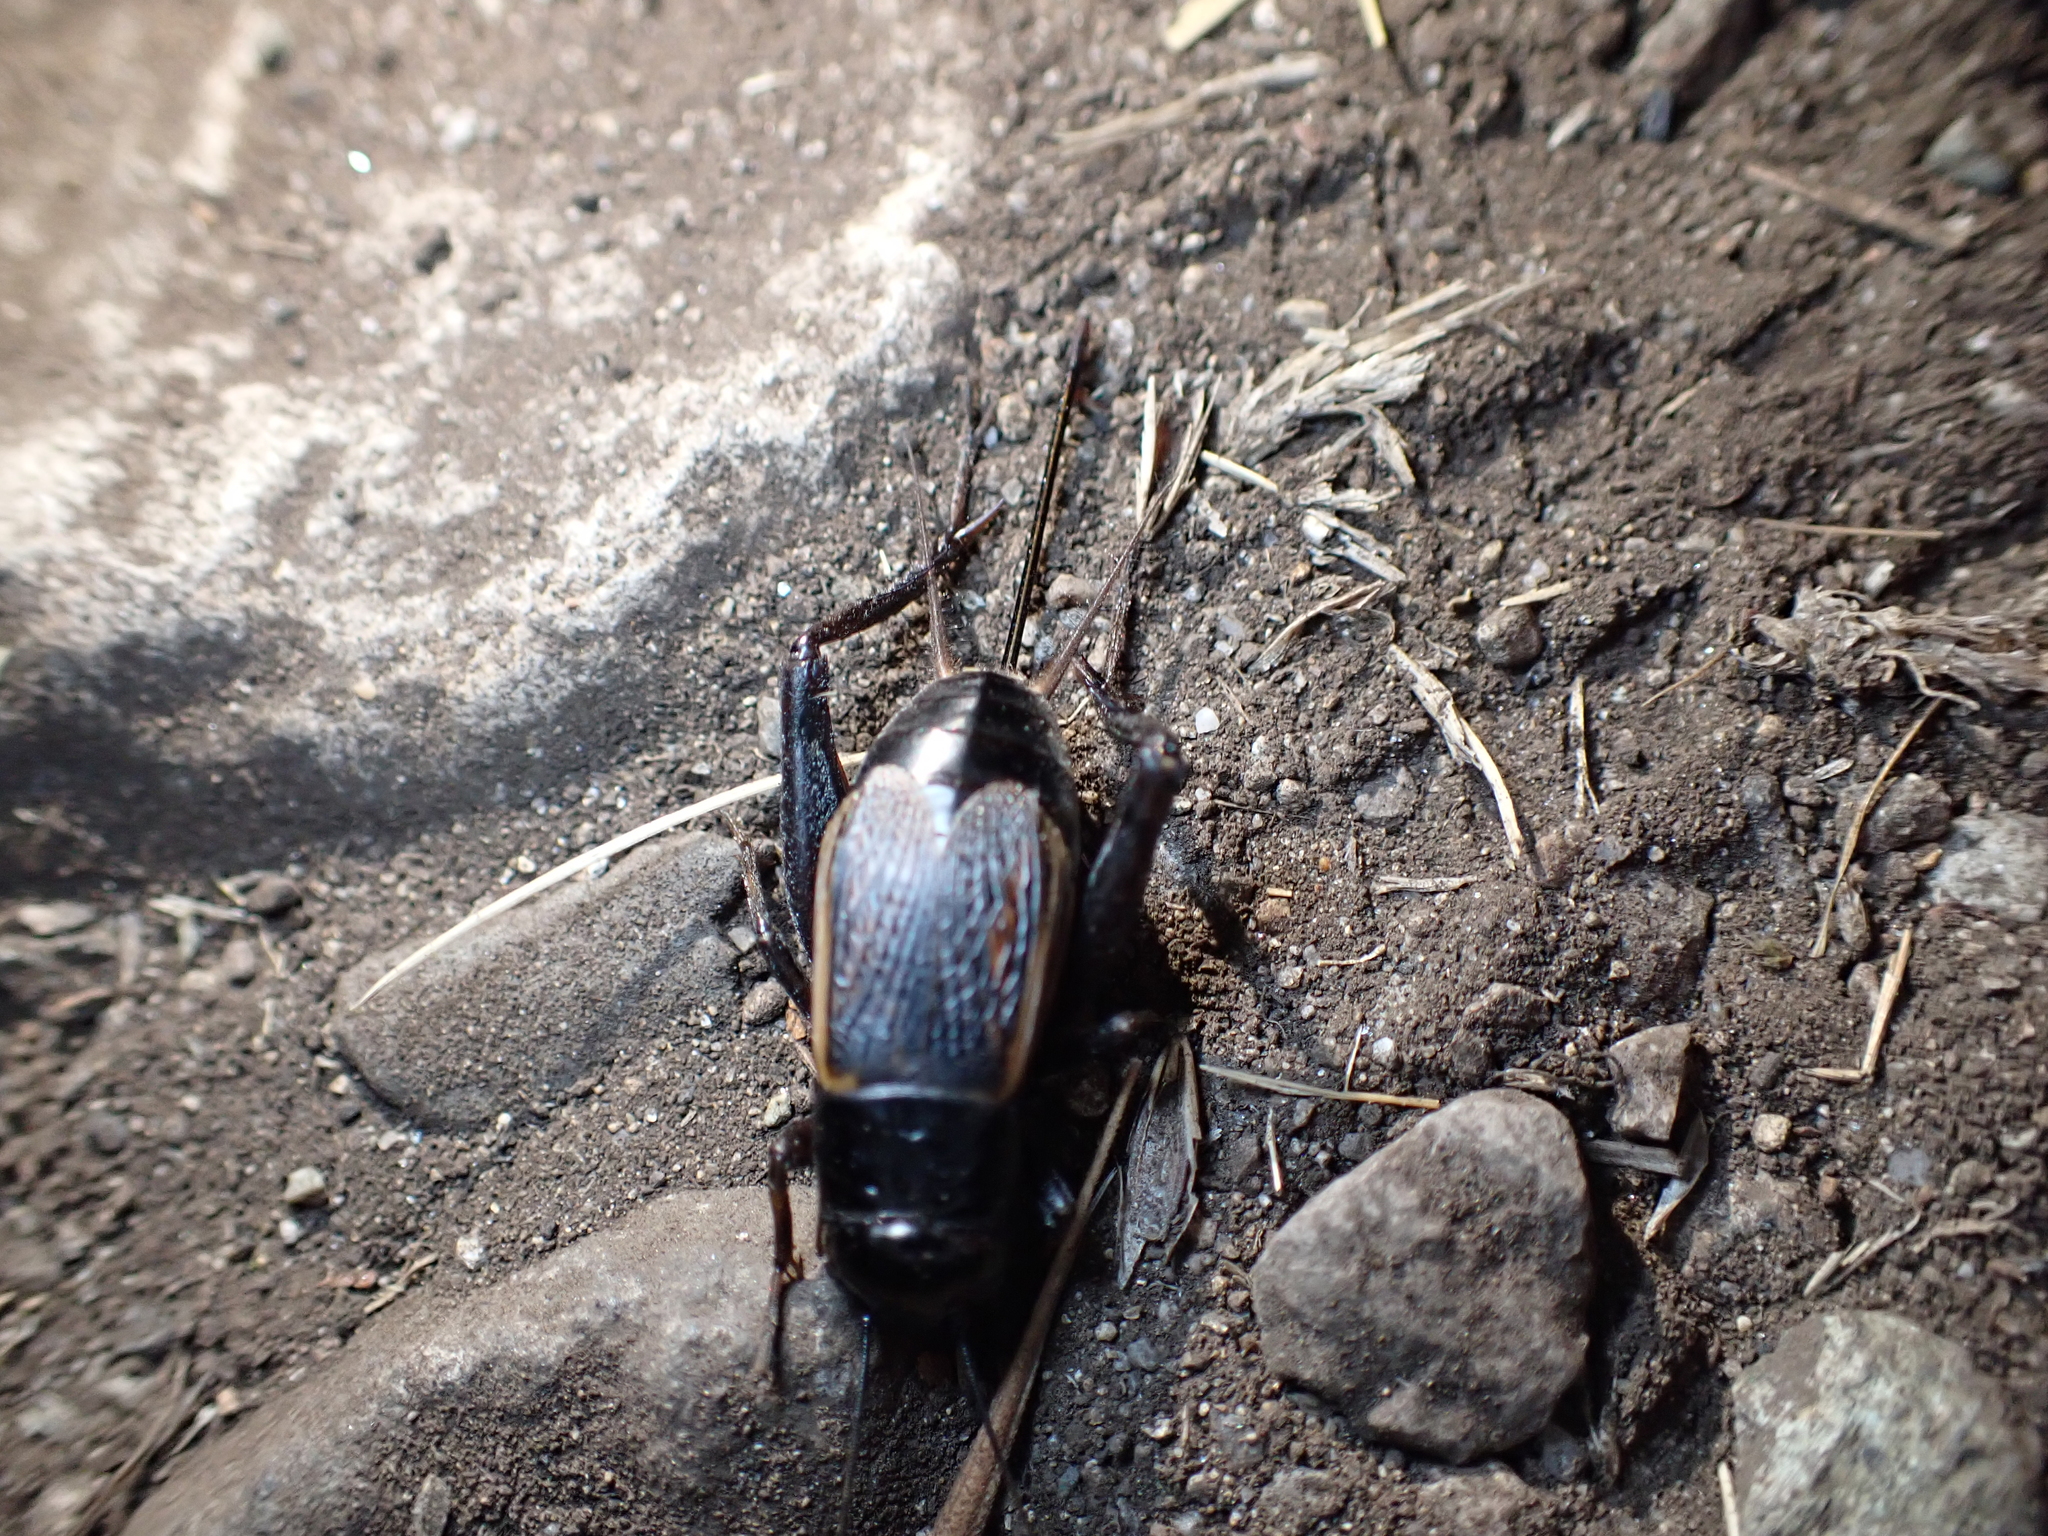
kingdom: Animalia
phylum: Arthropoda
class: Insecta
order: Orthoptera
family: Gryllidae
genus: Gryllus
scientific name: Gryllus pennsylvanicus
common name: Fall field cricket
